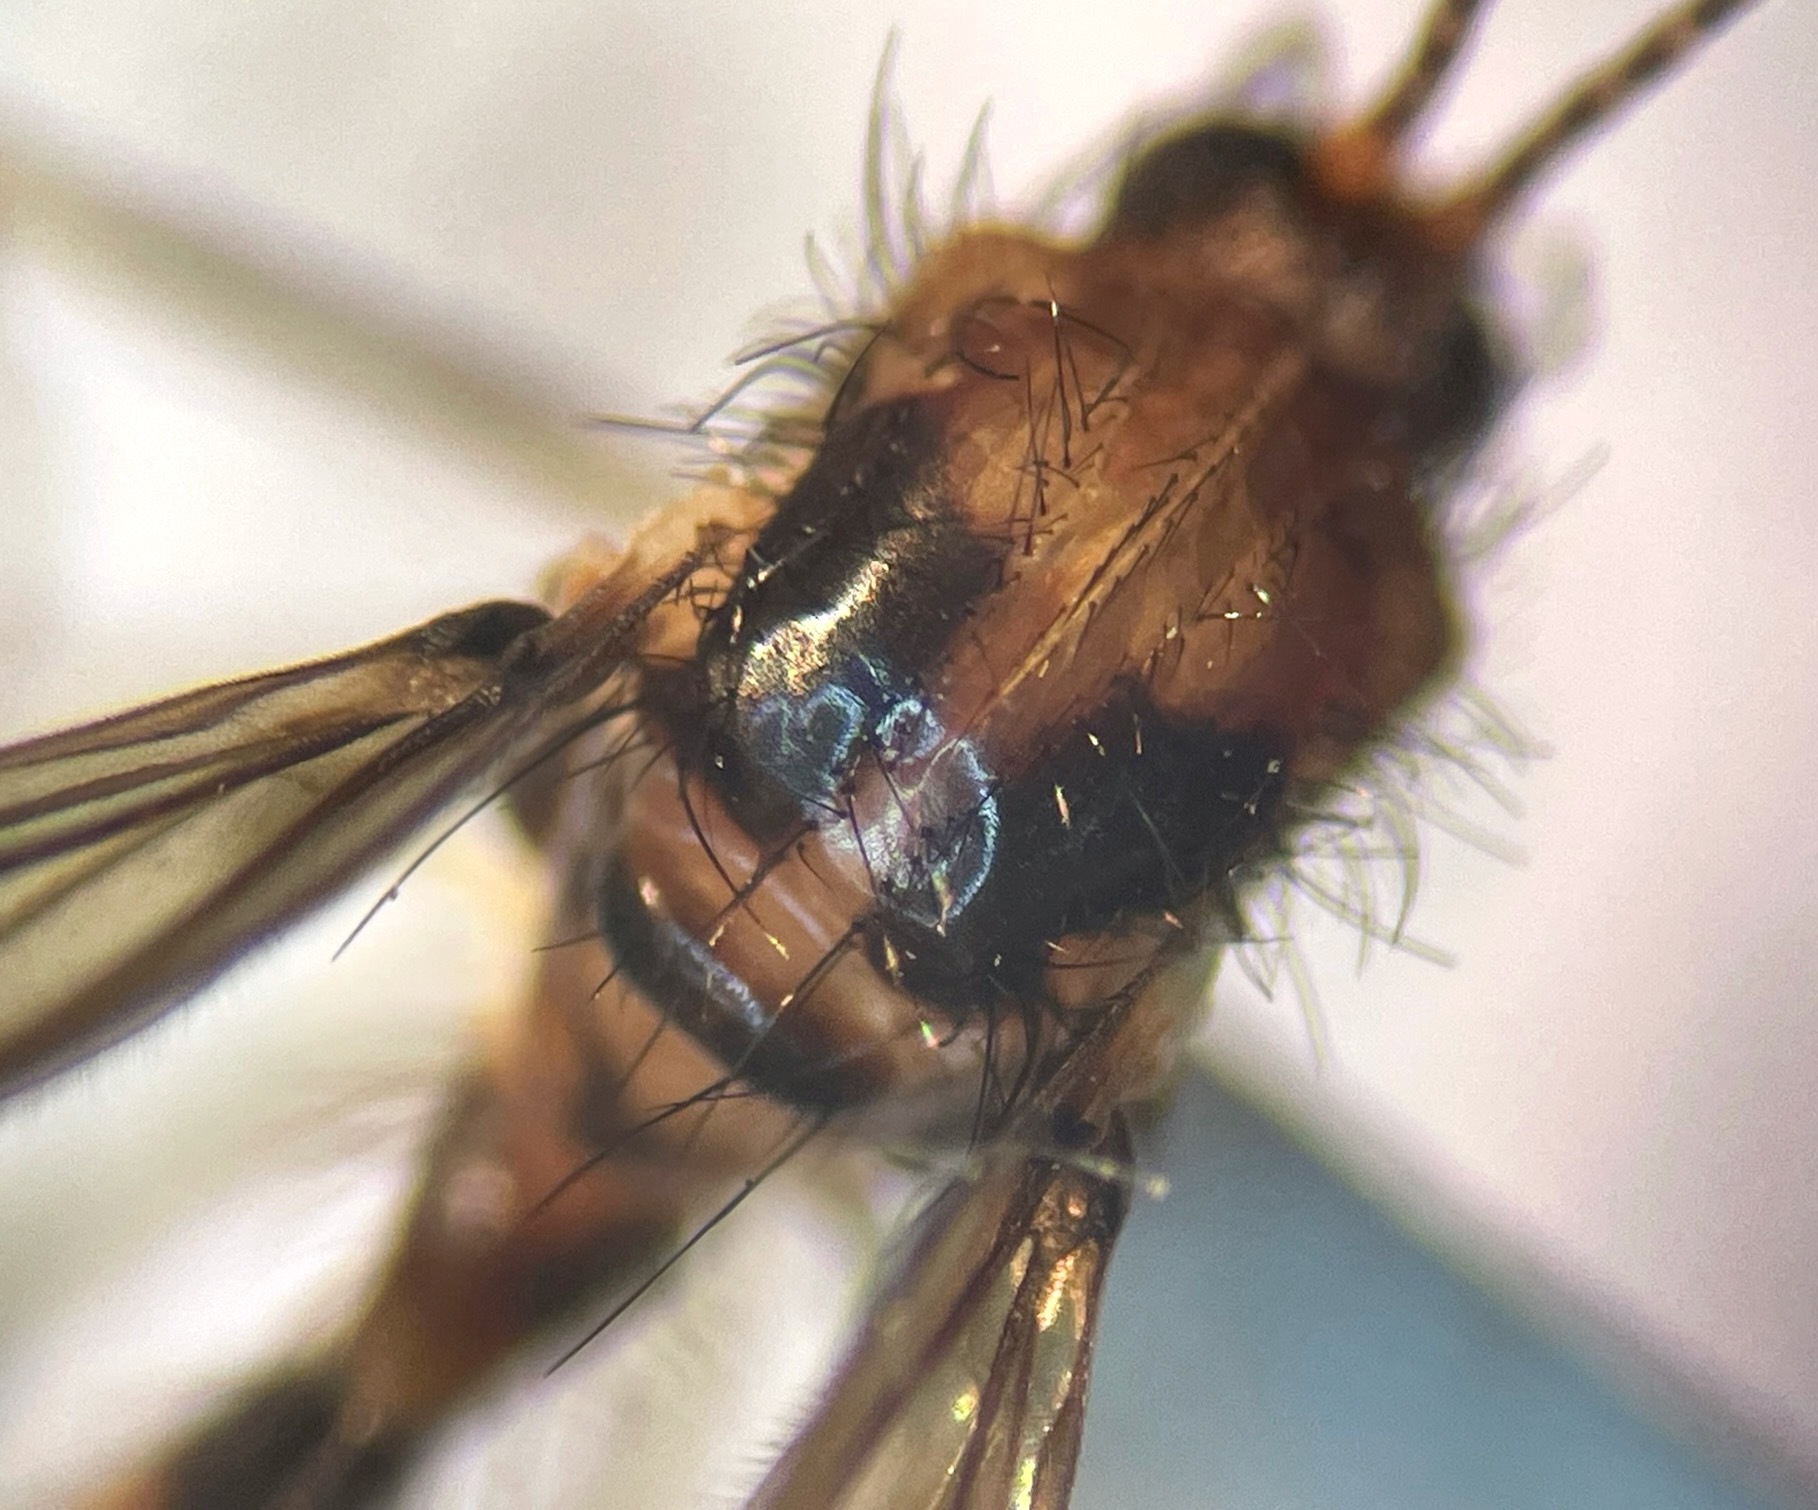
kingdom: Animalia
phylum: Arthropoda
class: Insecta
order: Diptera
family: Mycetophilidae
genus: Mycomya
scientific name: Mycomya quadrimaculata
